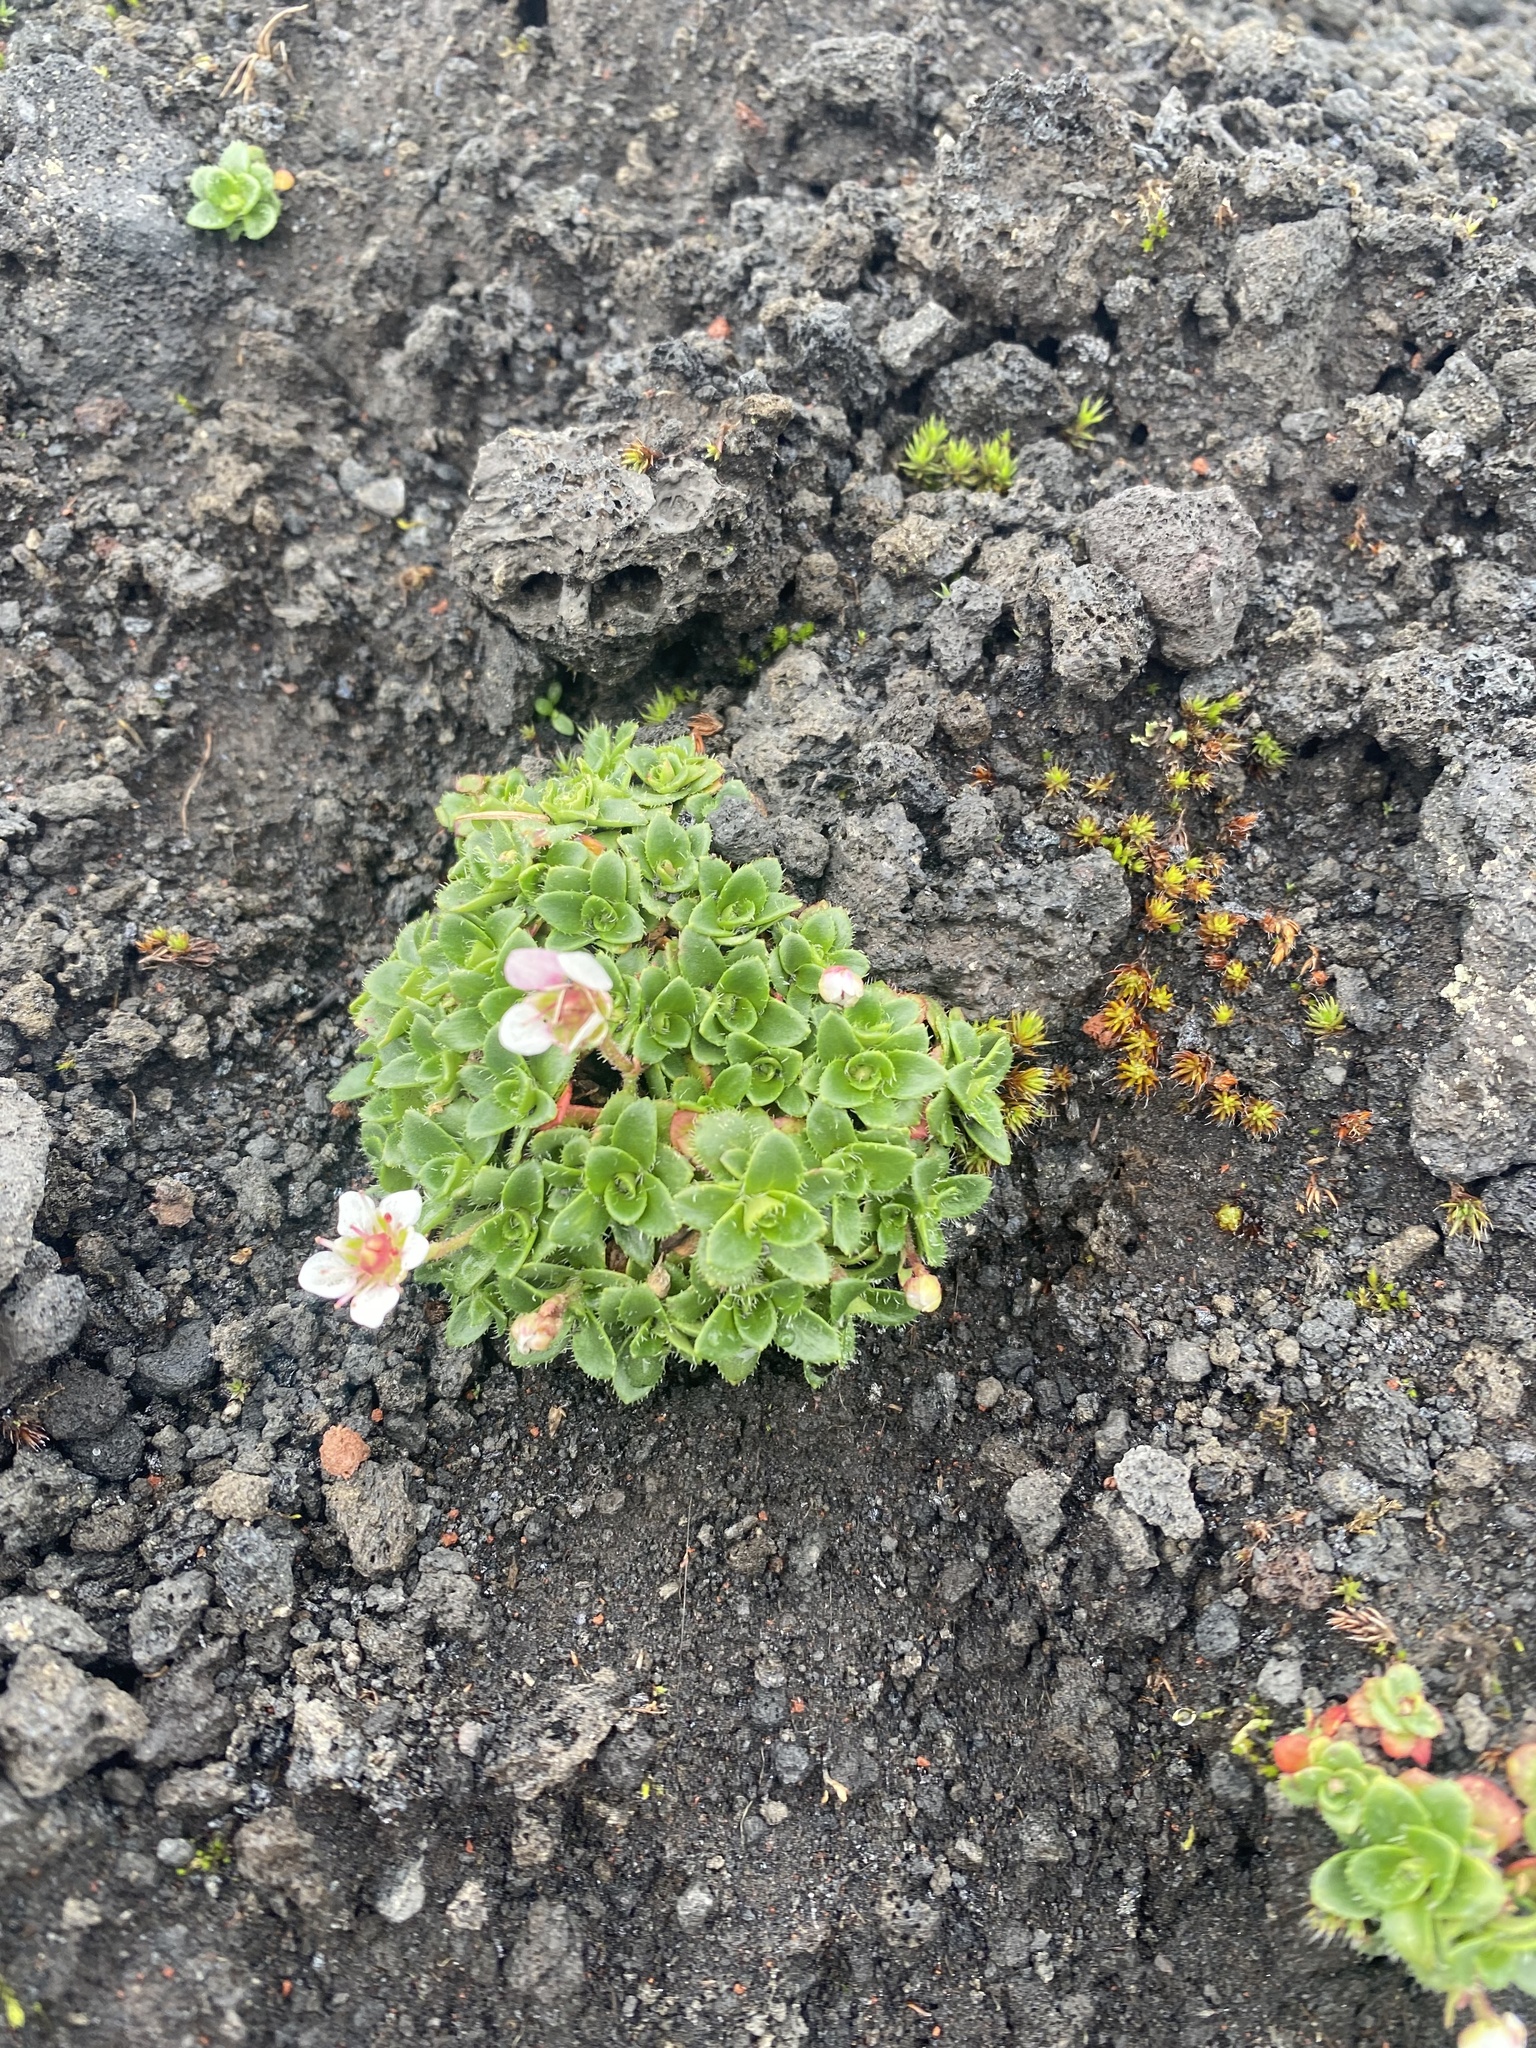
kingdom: Plantae
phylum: Tracheophyta
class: Magnoliopsida
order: Saxifragales
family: Saxifragaceae
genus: Micranthes
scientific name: Micranthes merkii
